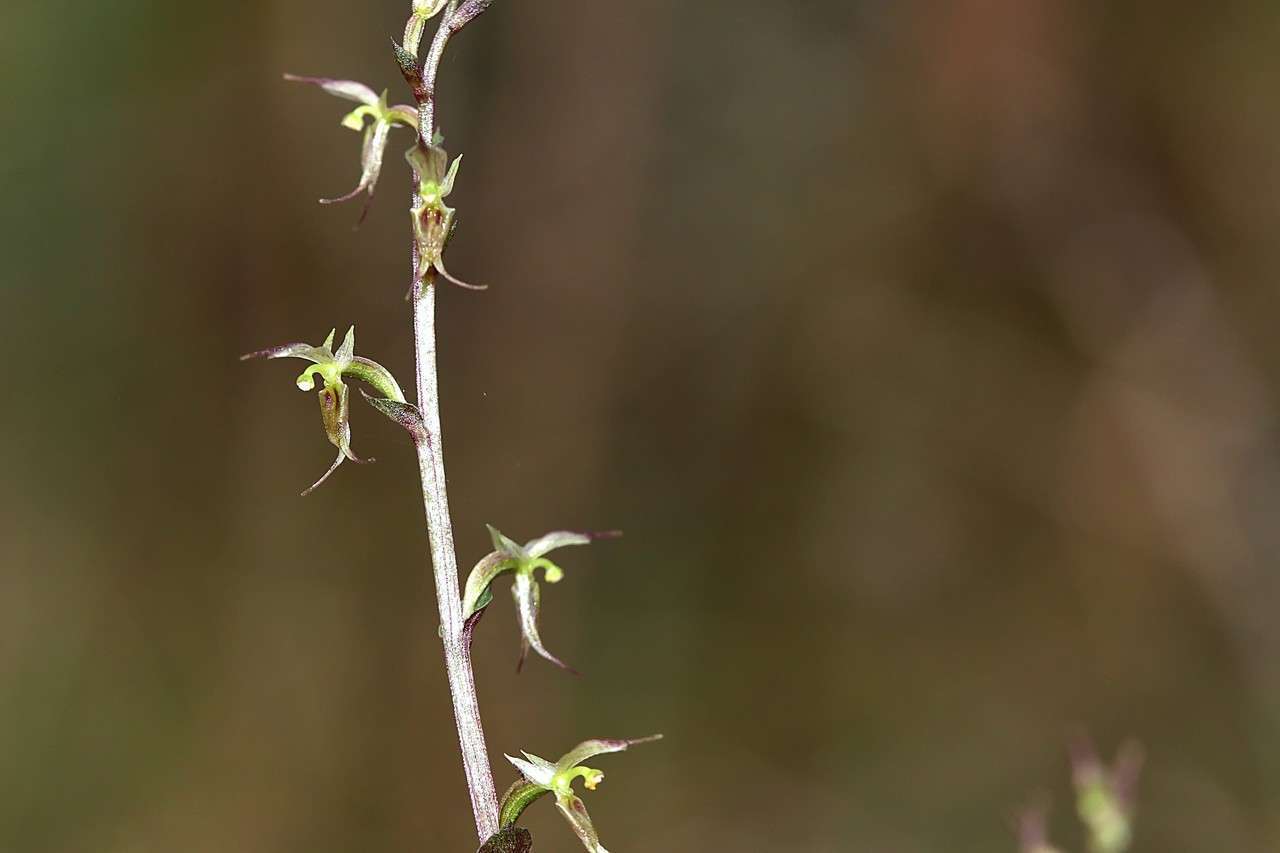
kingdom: Plantae
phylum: Tracheophyta
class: Liliopsida
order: Asparagales
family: Orchidaceae
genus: Acianthus
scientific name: Acianthus pusillus
